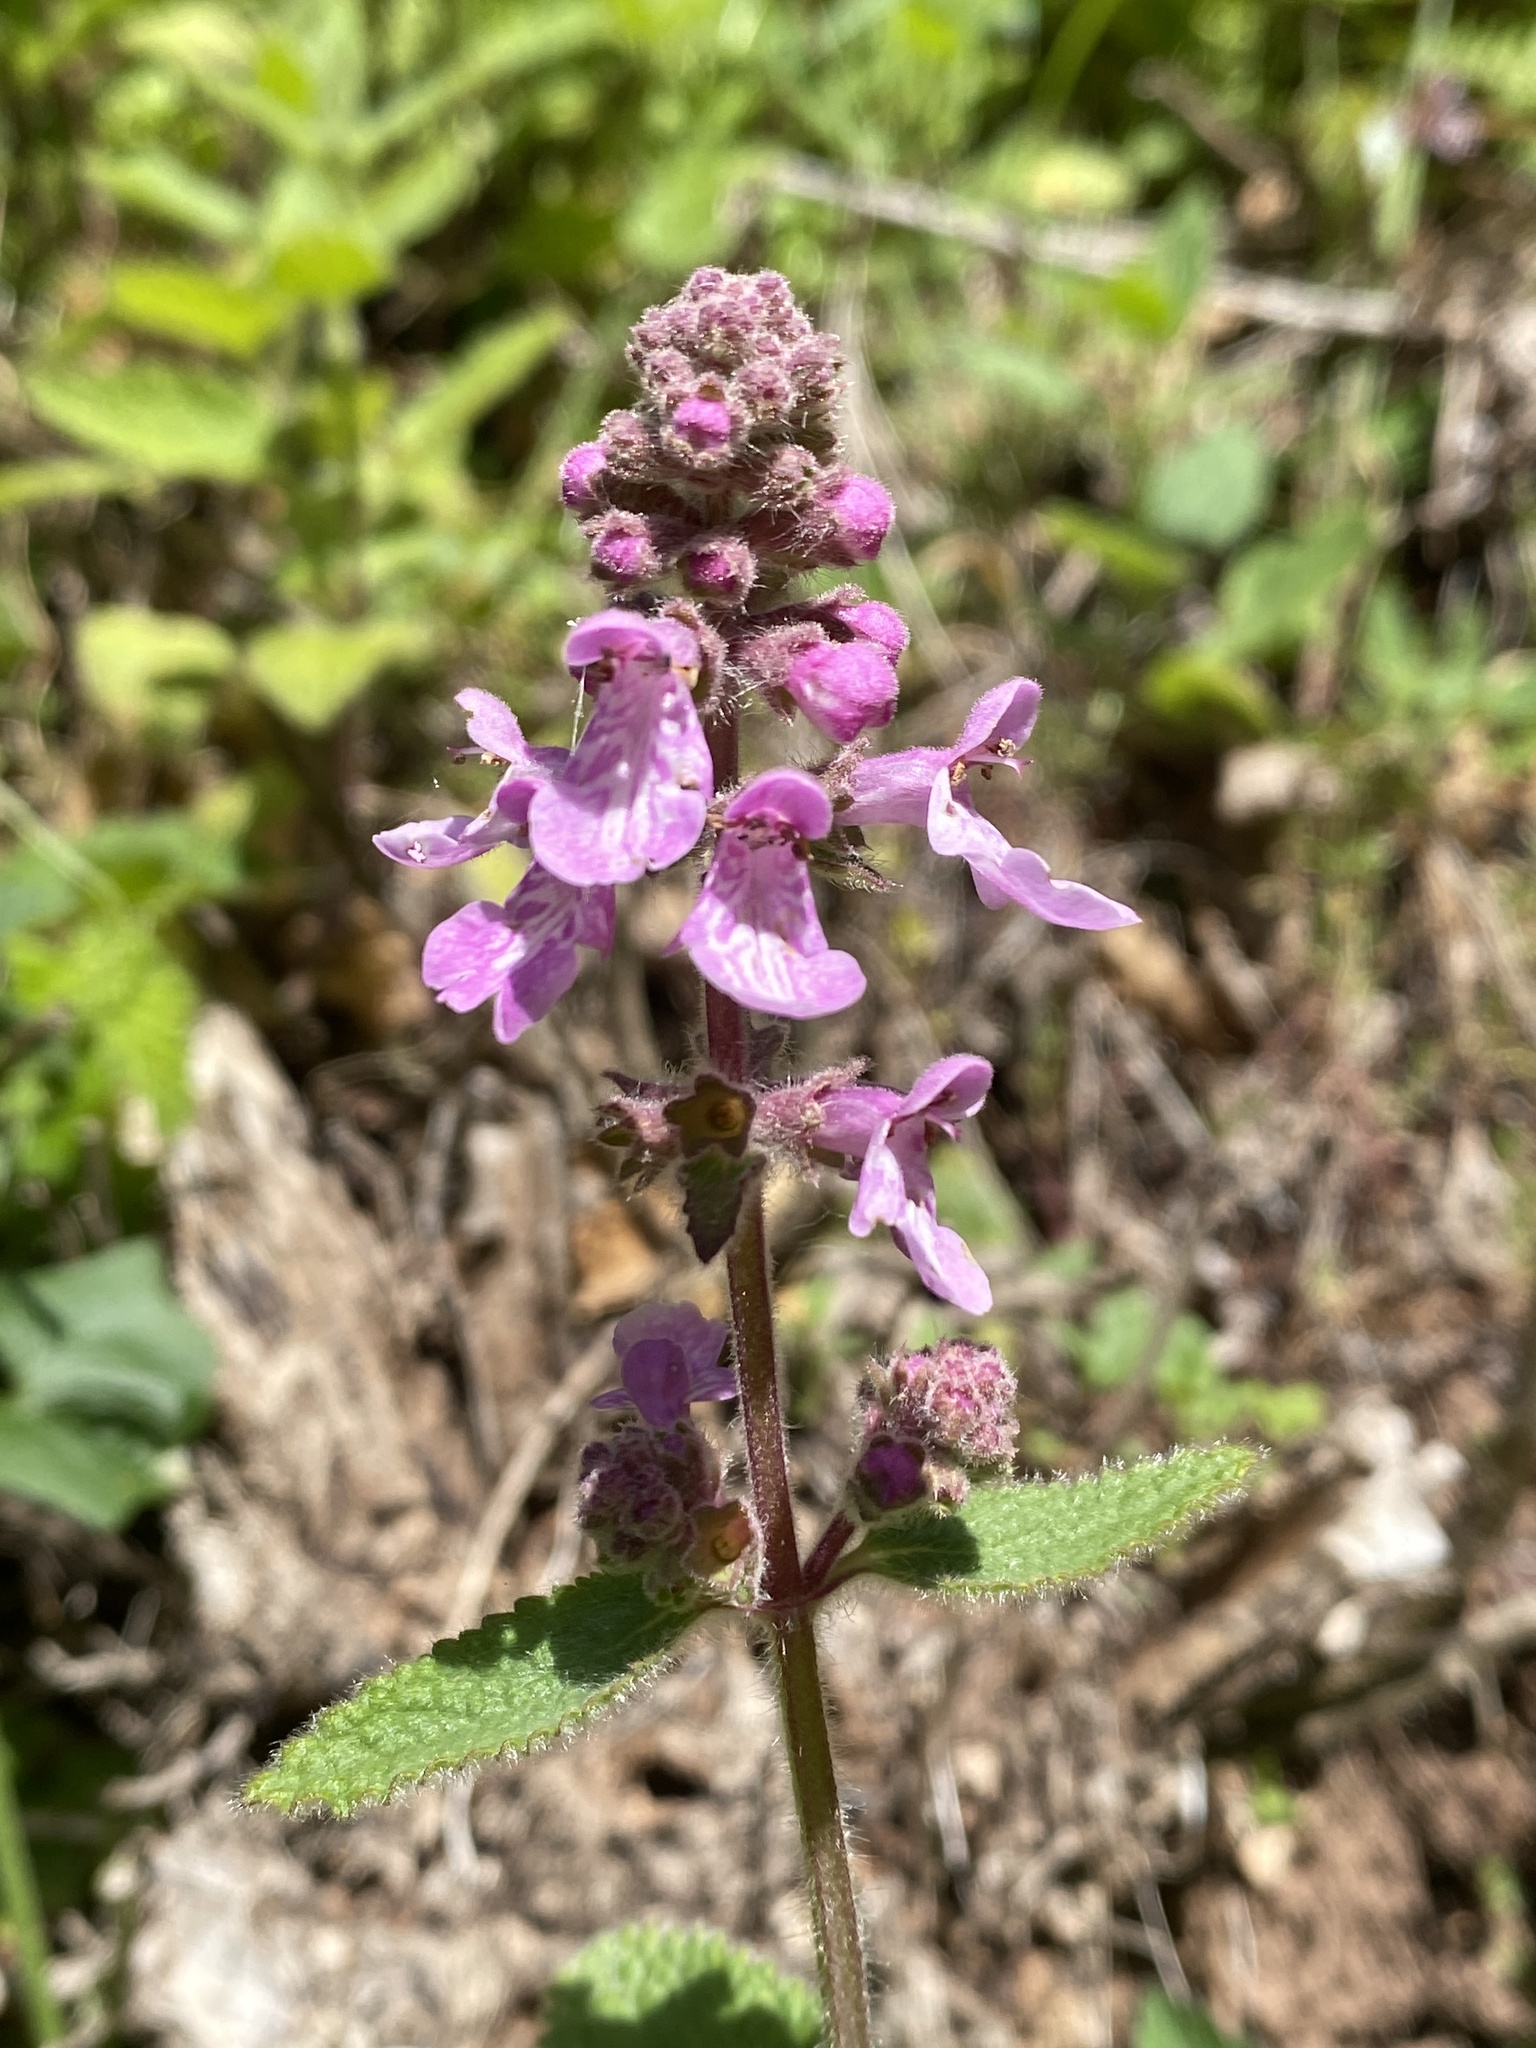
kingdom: Plantae
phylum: Tracheophyta
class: Magnoliopsida
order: Lamiales
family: Lamiaceae
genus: Stachys
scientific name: Stachys bullata
